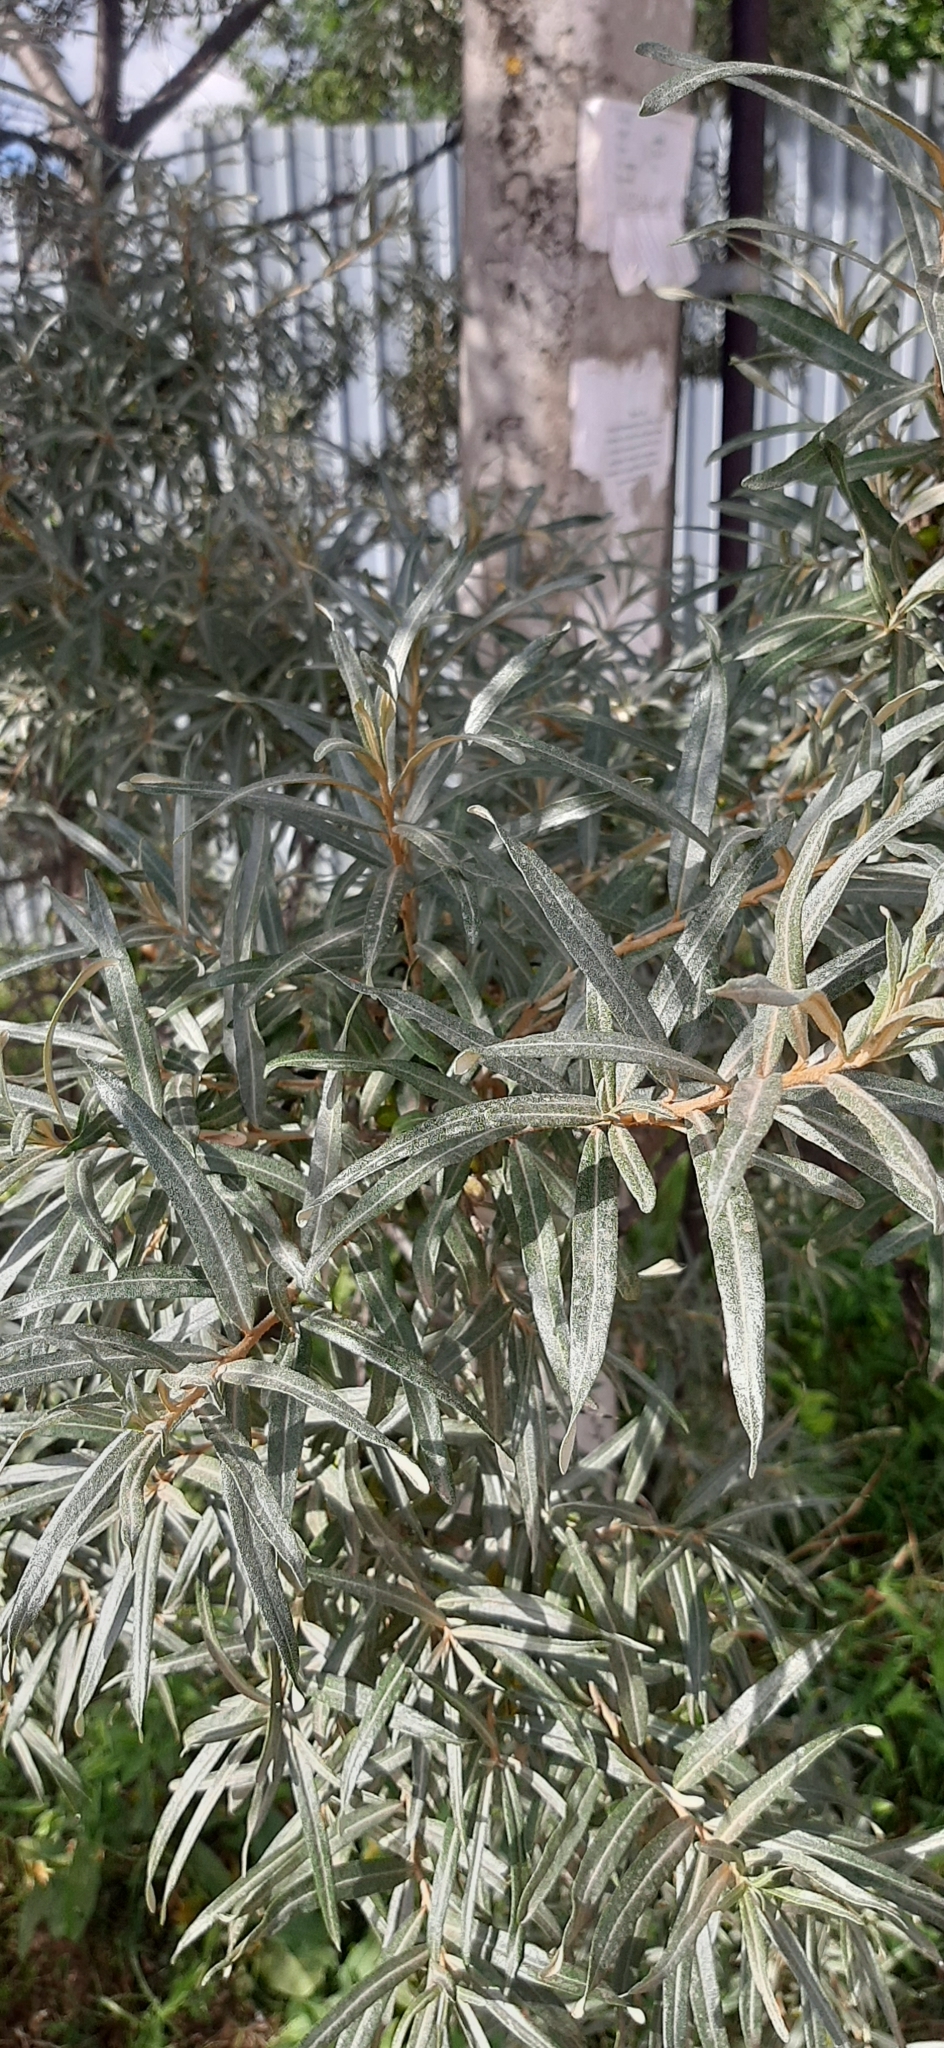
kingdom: Plantae
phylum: Tracheophyta
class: Magnoliopsida
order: Rosales
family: Elaeagnaceae
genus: Hippophae
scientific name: Hippophae rhamnoides
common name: Sea-buckthorn
